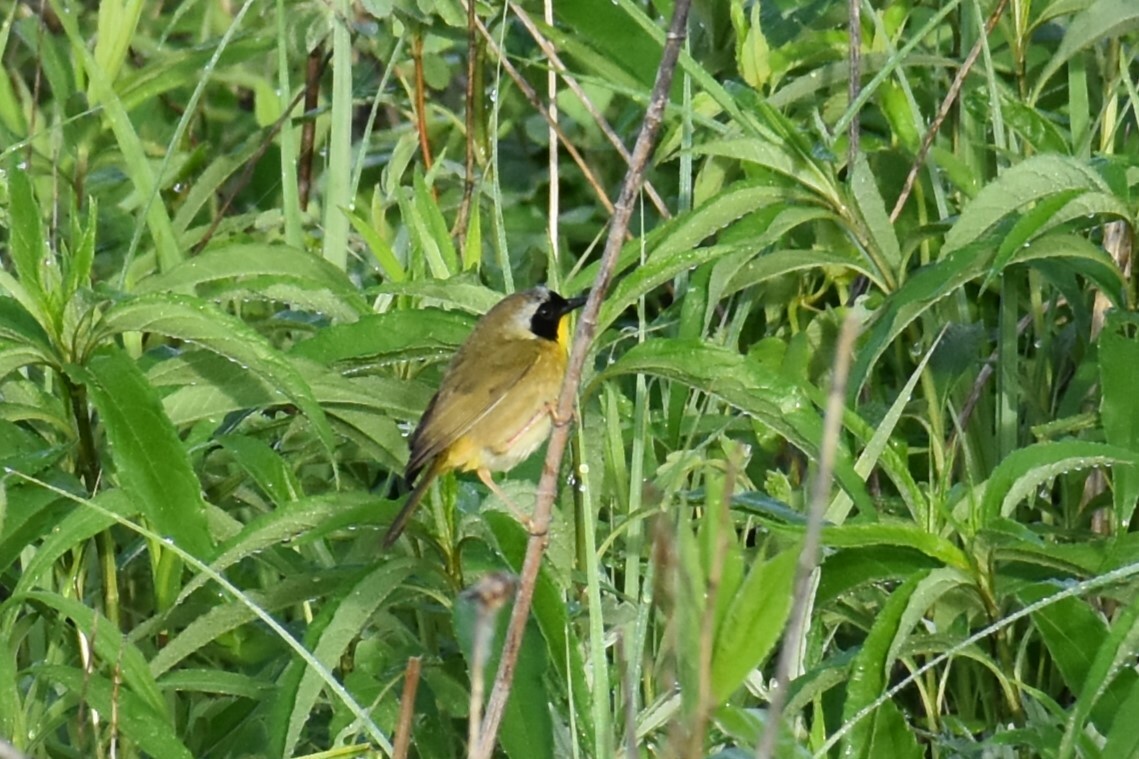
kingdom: Animalia
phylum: Chordata
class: Aves
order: Passeriformes
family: Parulidae
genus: Geothlypis
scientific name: Geothlypis trichas
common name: Common yellowthroat
